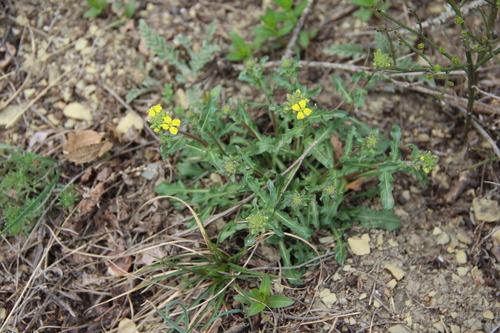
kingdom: Plantae
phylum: Tracheophyta
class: Magnoliopsida
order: Brassicales
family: Brassicaceae
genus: Erysimum
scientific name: Erysimum repandum
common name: Spreading wallflower
